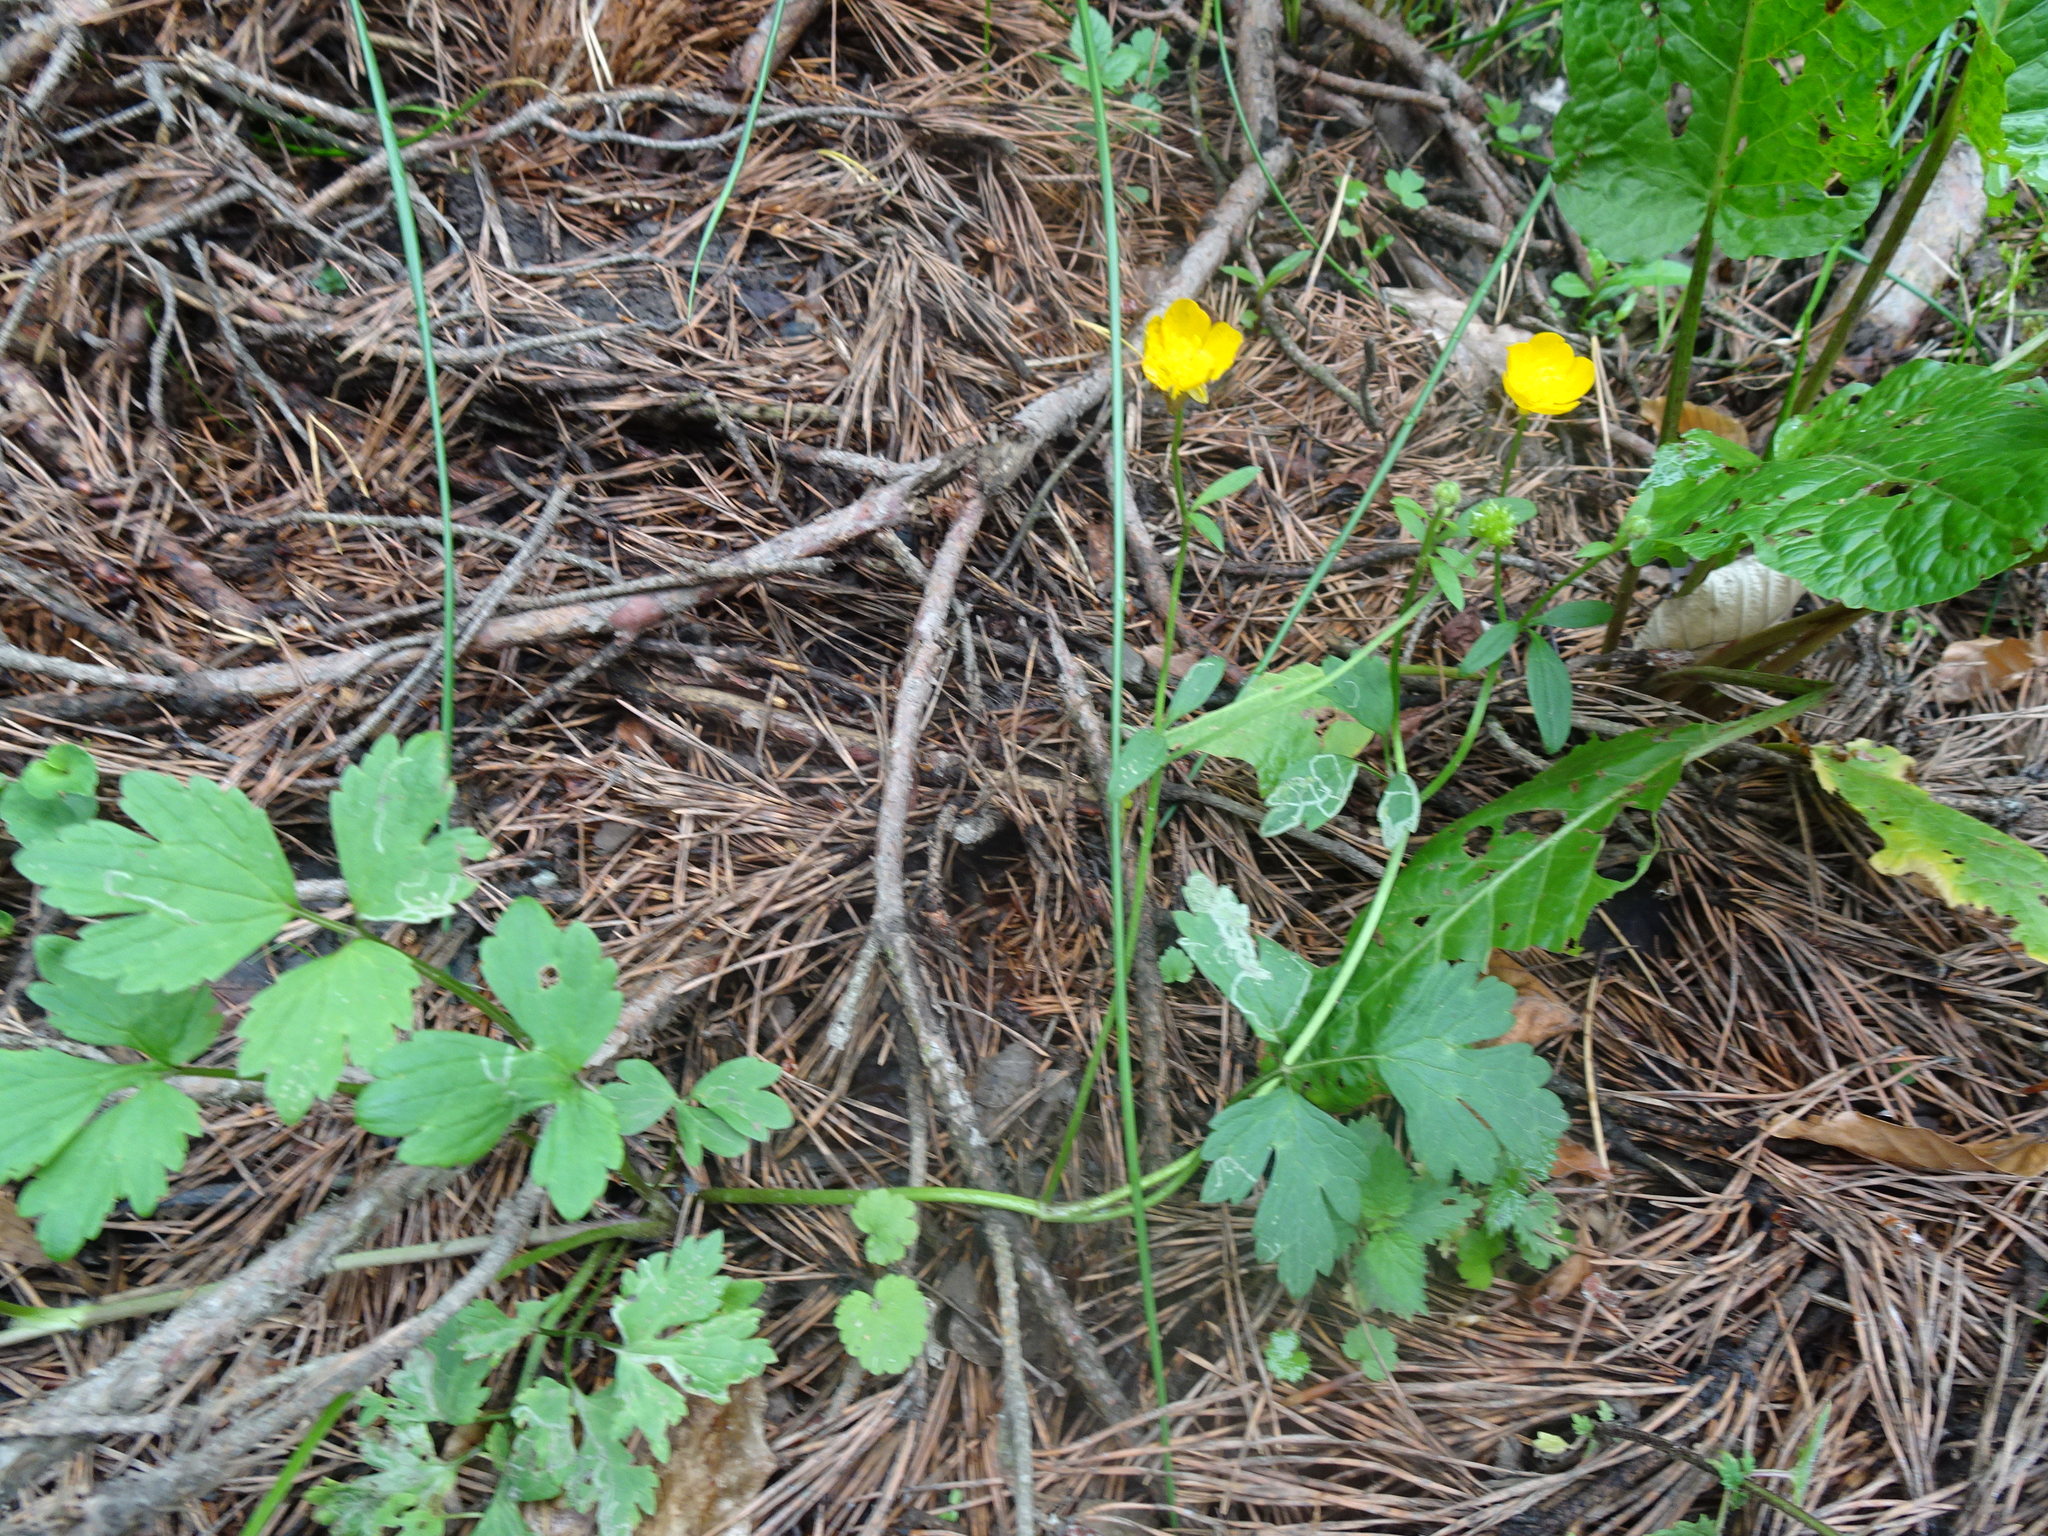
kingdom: Plantae
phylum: Tracheophyta
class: Magnoliopsida
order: Ranunculales
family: Ranunculaceae
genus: Ranunculus
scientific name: Ranunculus repens
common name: Creeping buttercup
